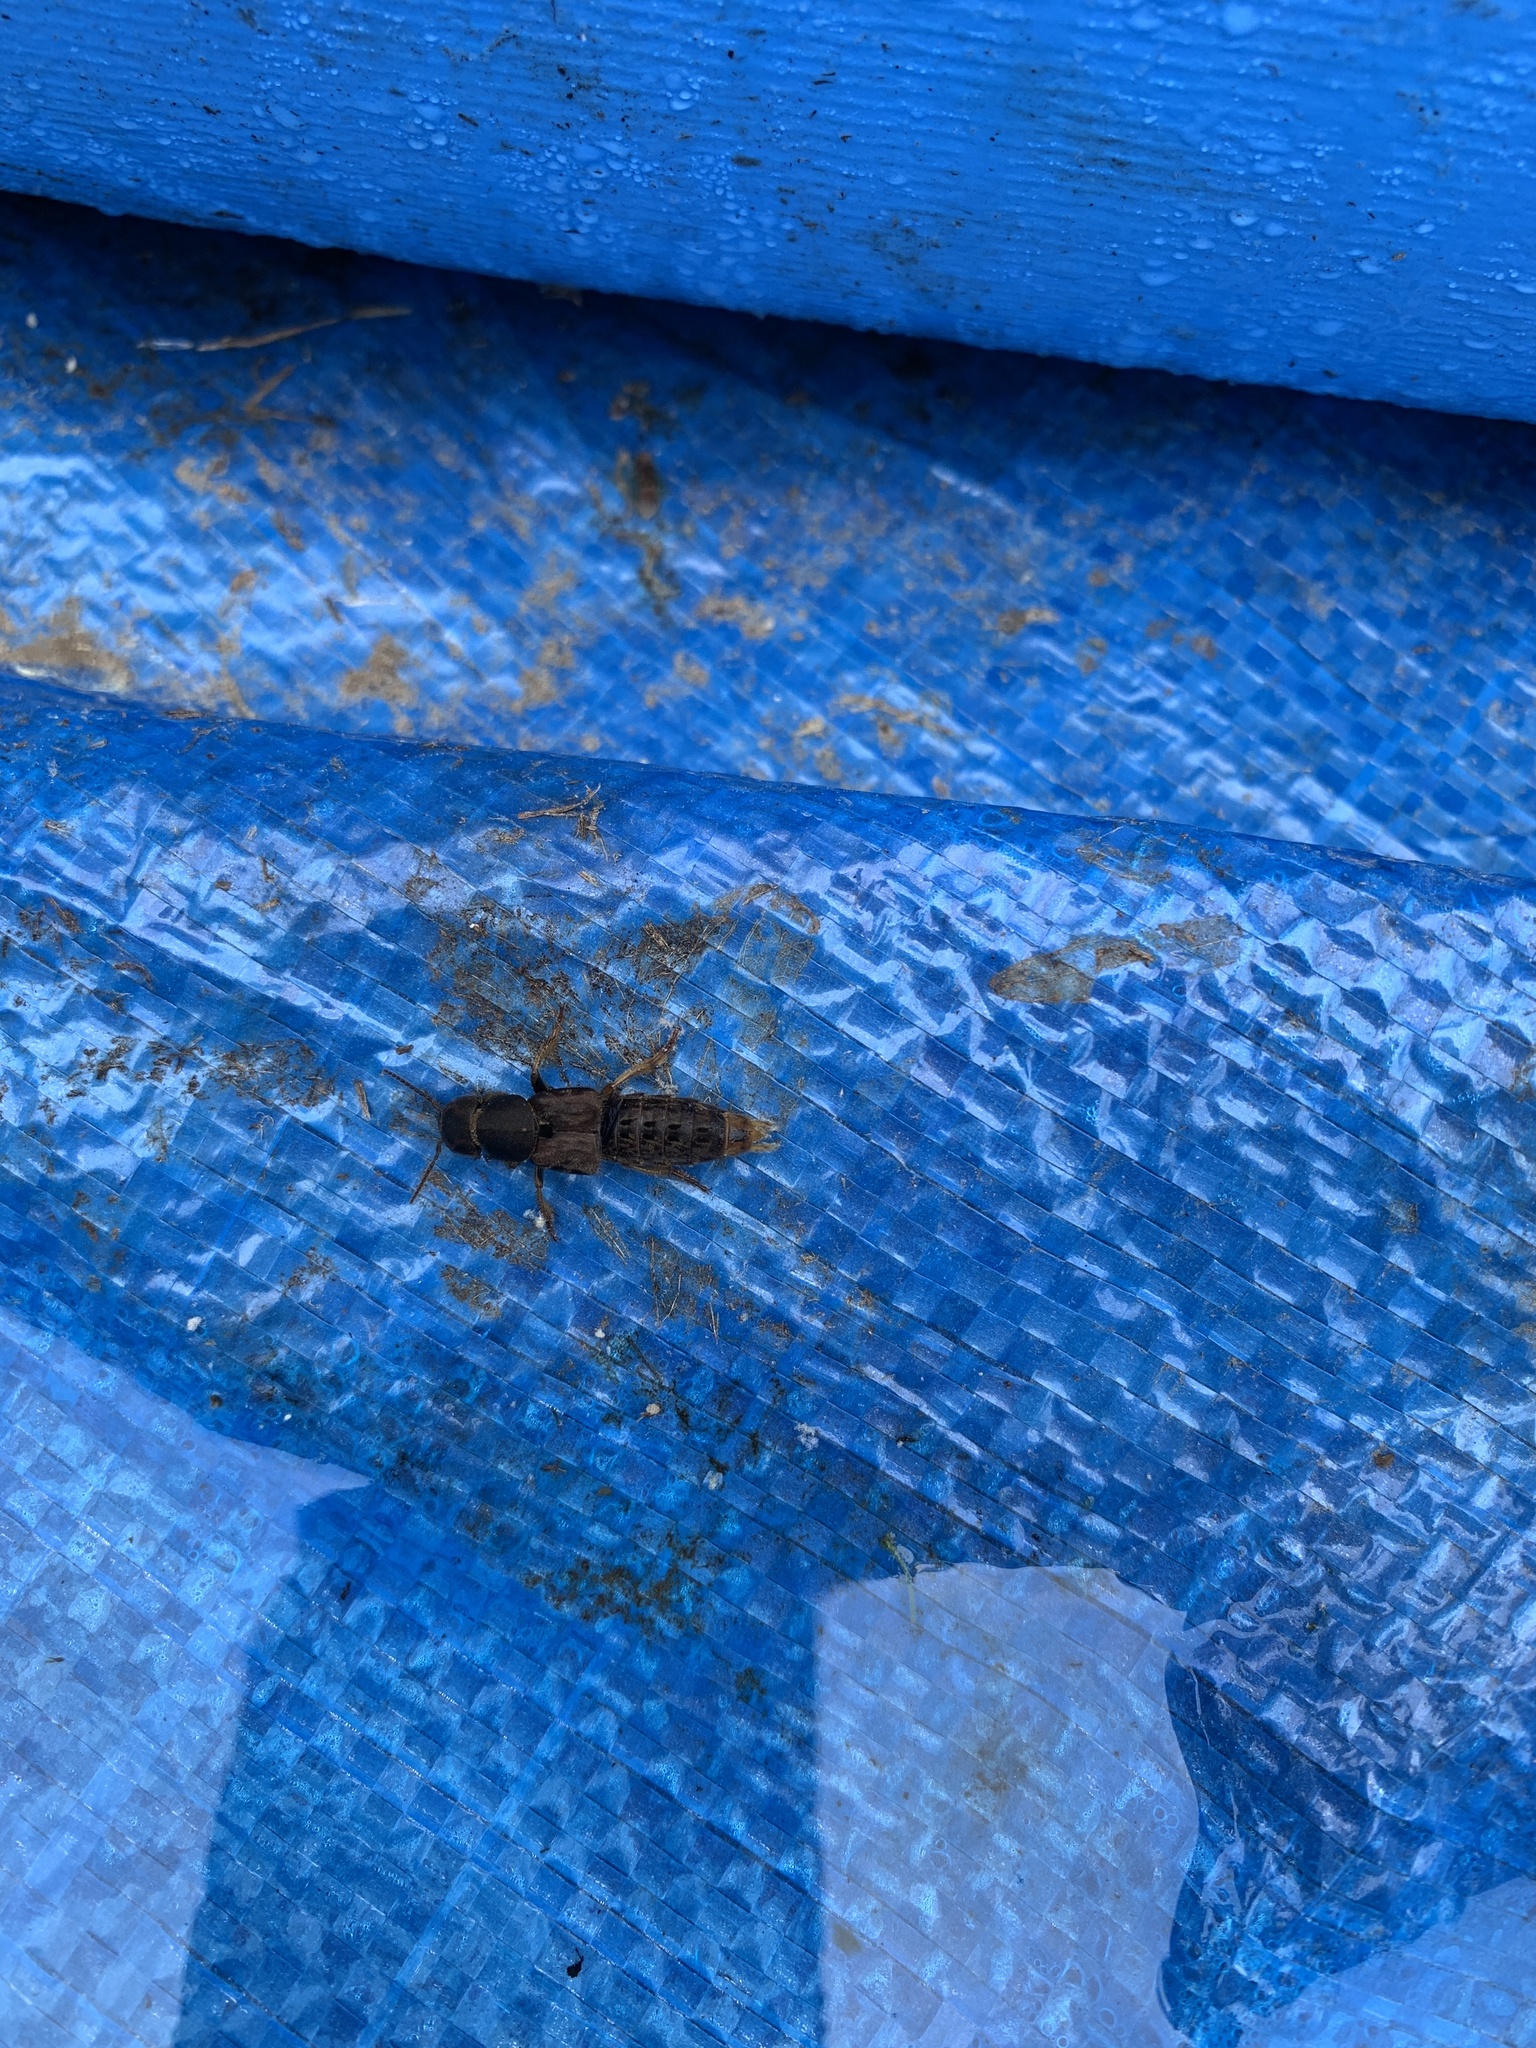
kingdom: Animalia
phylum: Arthropoda
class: Insecta
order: Coleoptera
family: Staphylinidae
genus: Platydracus
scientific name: Platydracus maculosus
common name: Brown rove beetle
